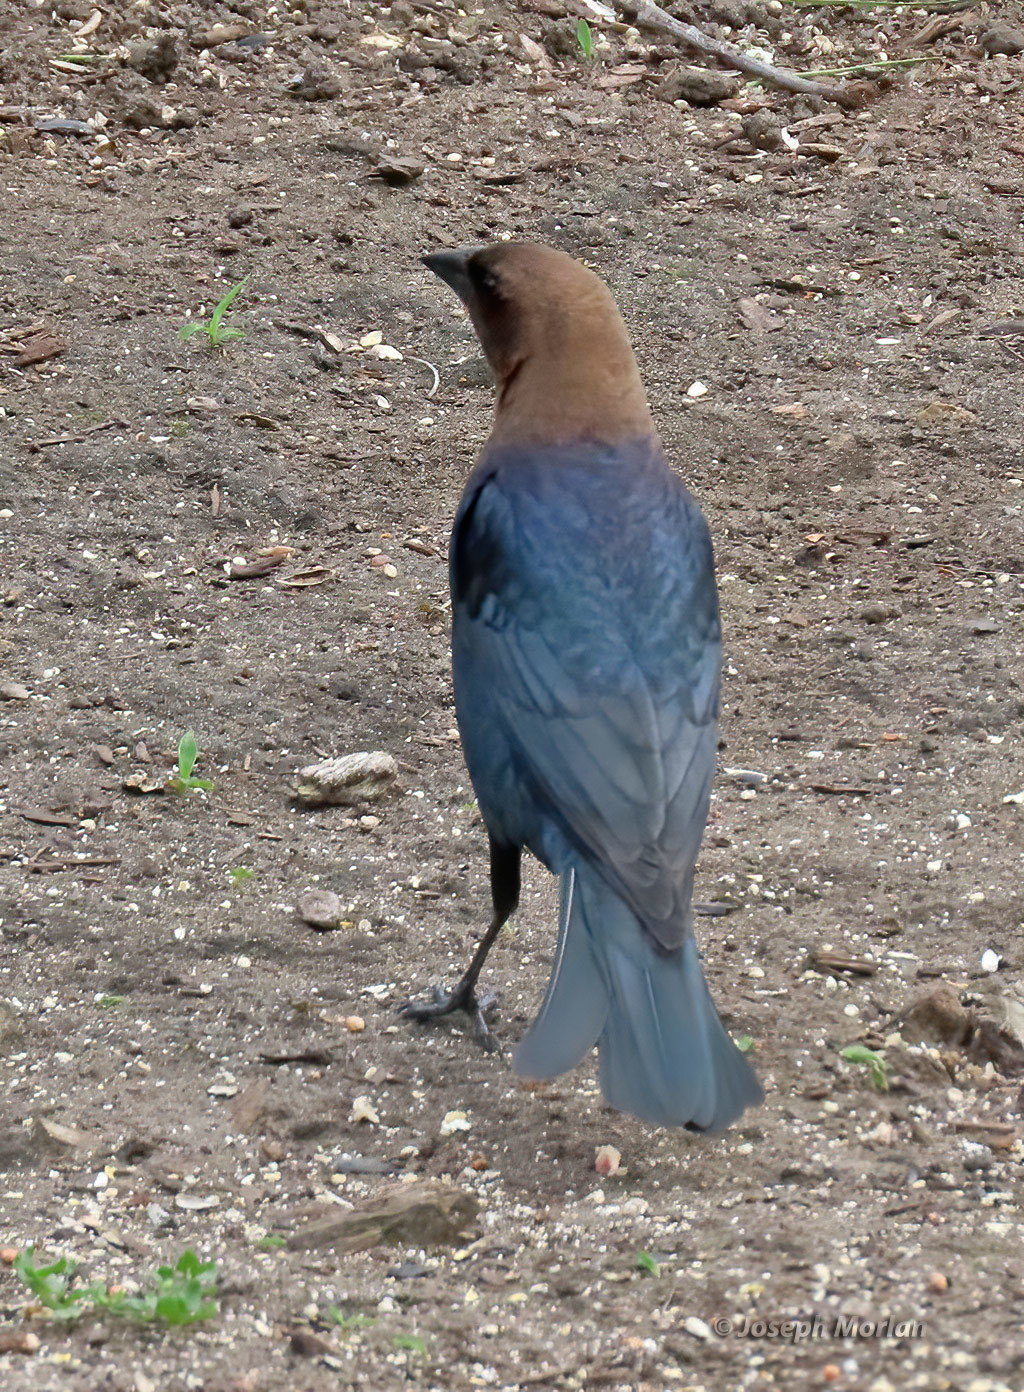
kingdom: Animalia
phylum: Chordata
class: Aves
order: Passeriformes
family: Icteridae
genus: Molothrus
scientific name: Molothrus ater
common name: Brown-headed cowbird
